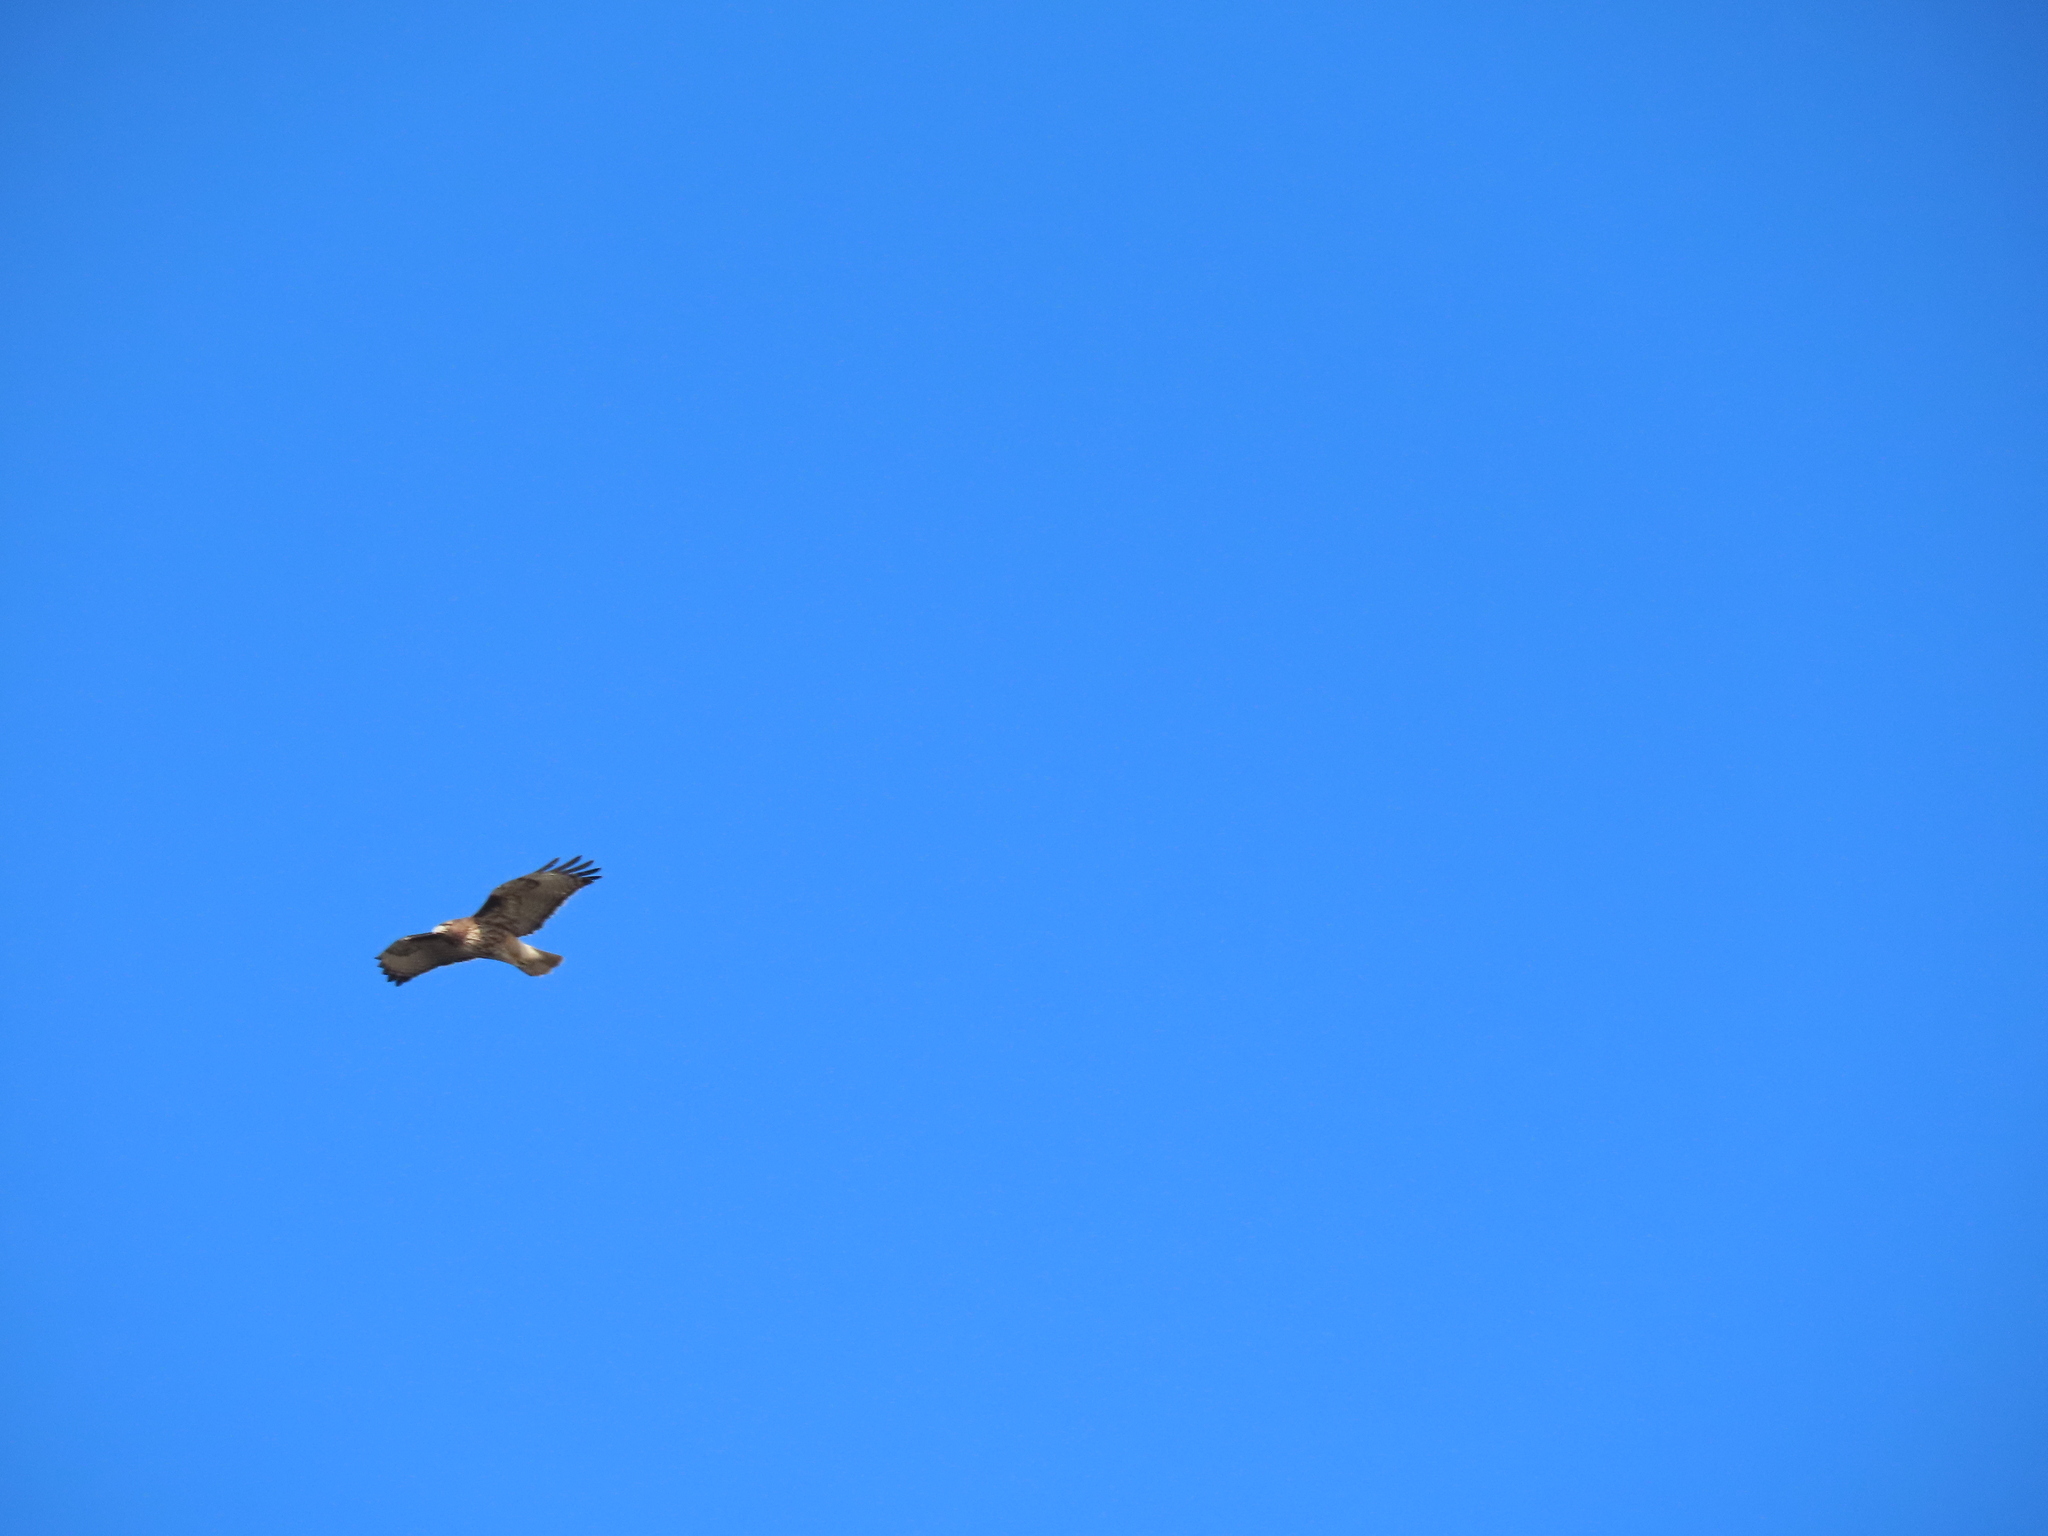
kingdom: Animalia
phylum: Chordata
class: Aves
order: Accipitriformes
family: Accipitridae
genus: Buteo
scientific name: Buteo jamaicensis
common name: Red-tailed hawk
